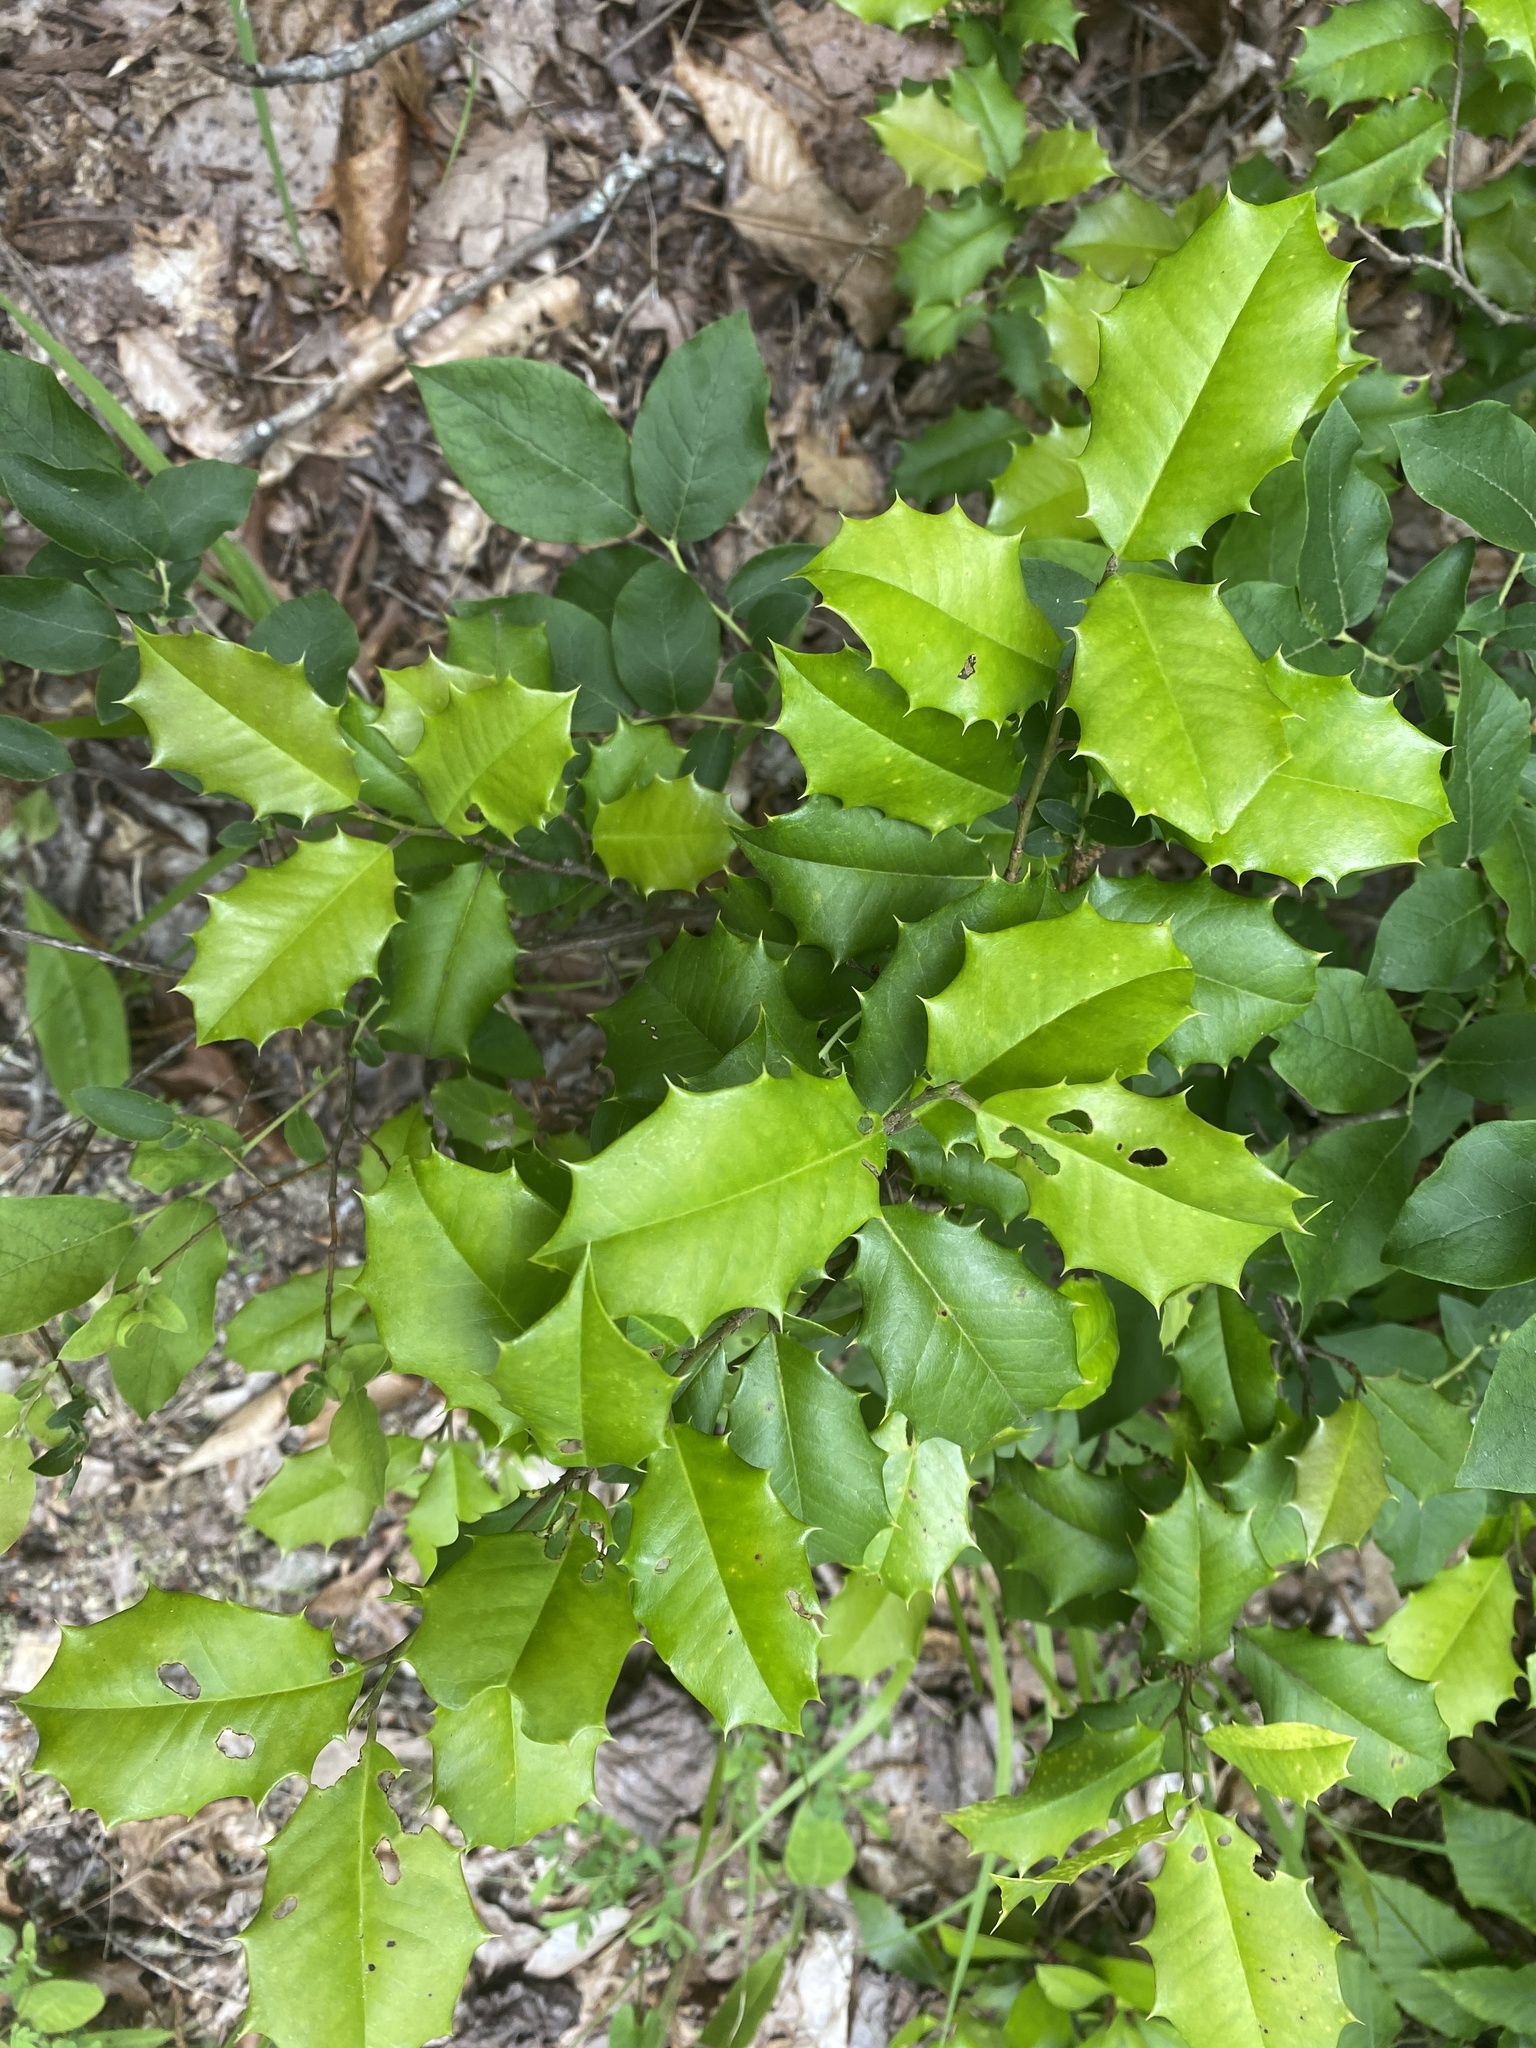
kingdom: Plantae
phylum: Tracheophyta
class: Magnoliopsida
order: Aquifoliales
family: Aquifoliaceae
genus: Ilex
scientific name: Ilex opaca
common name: American holly
